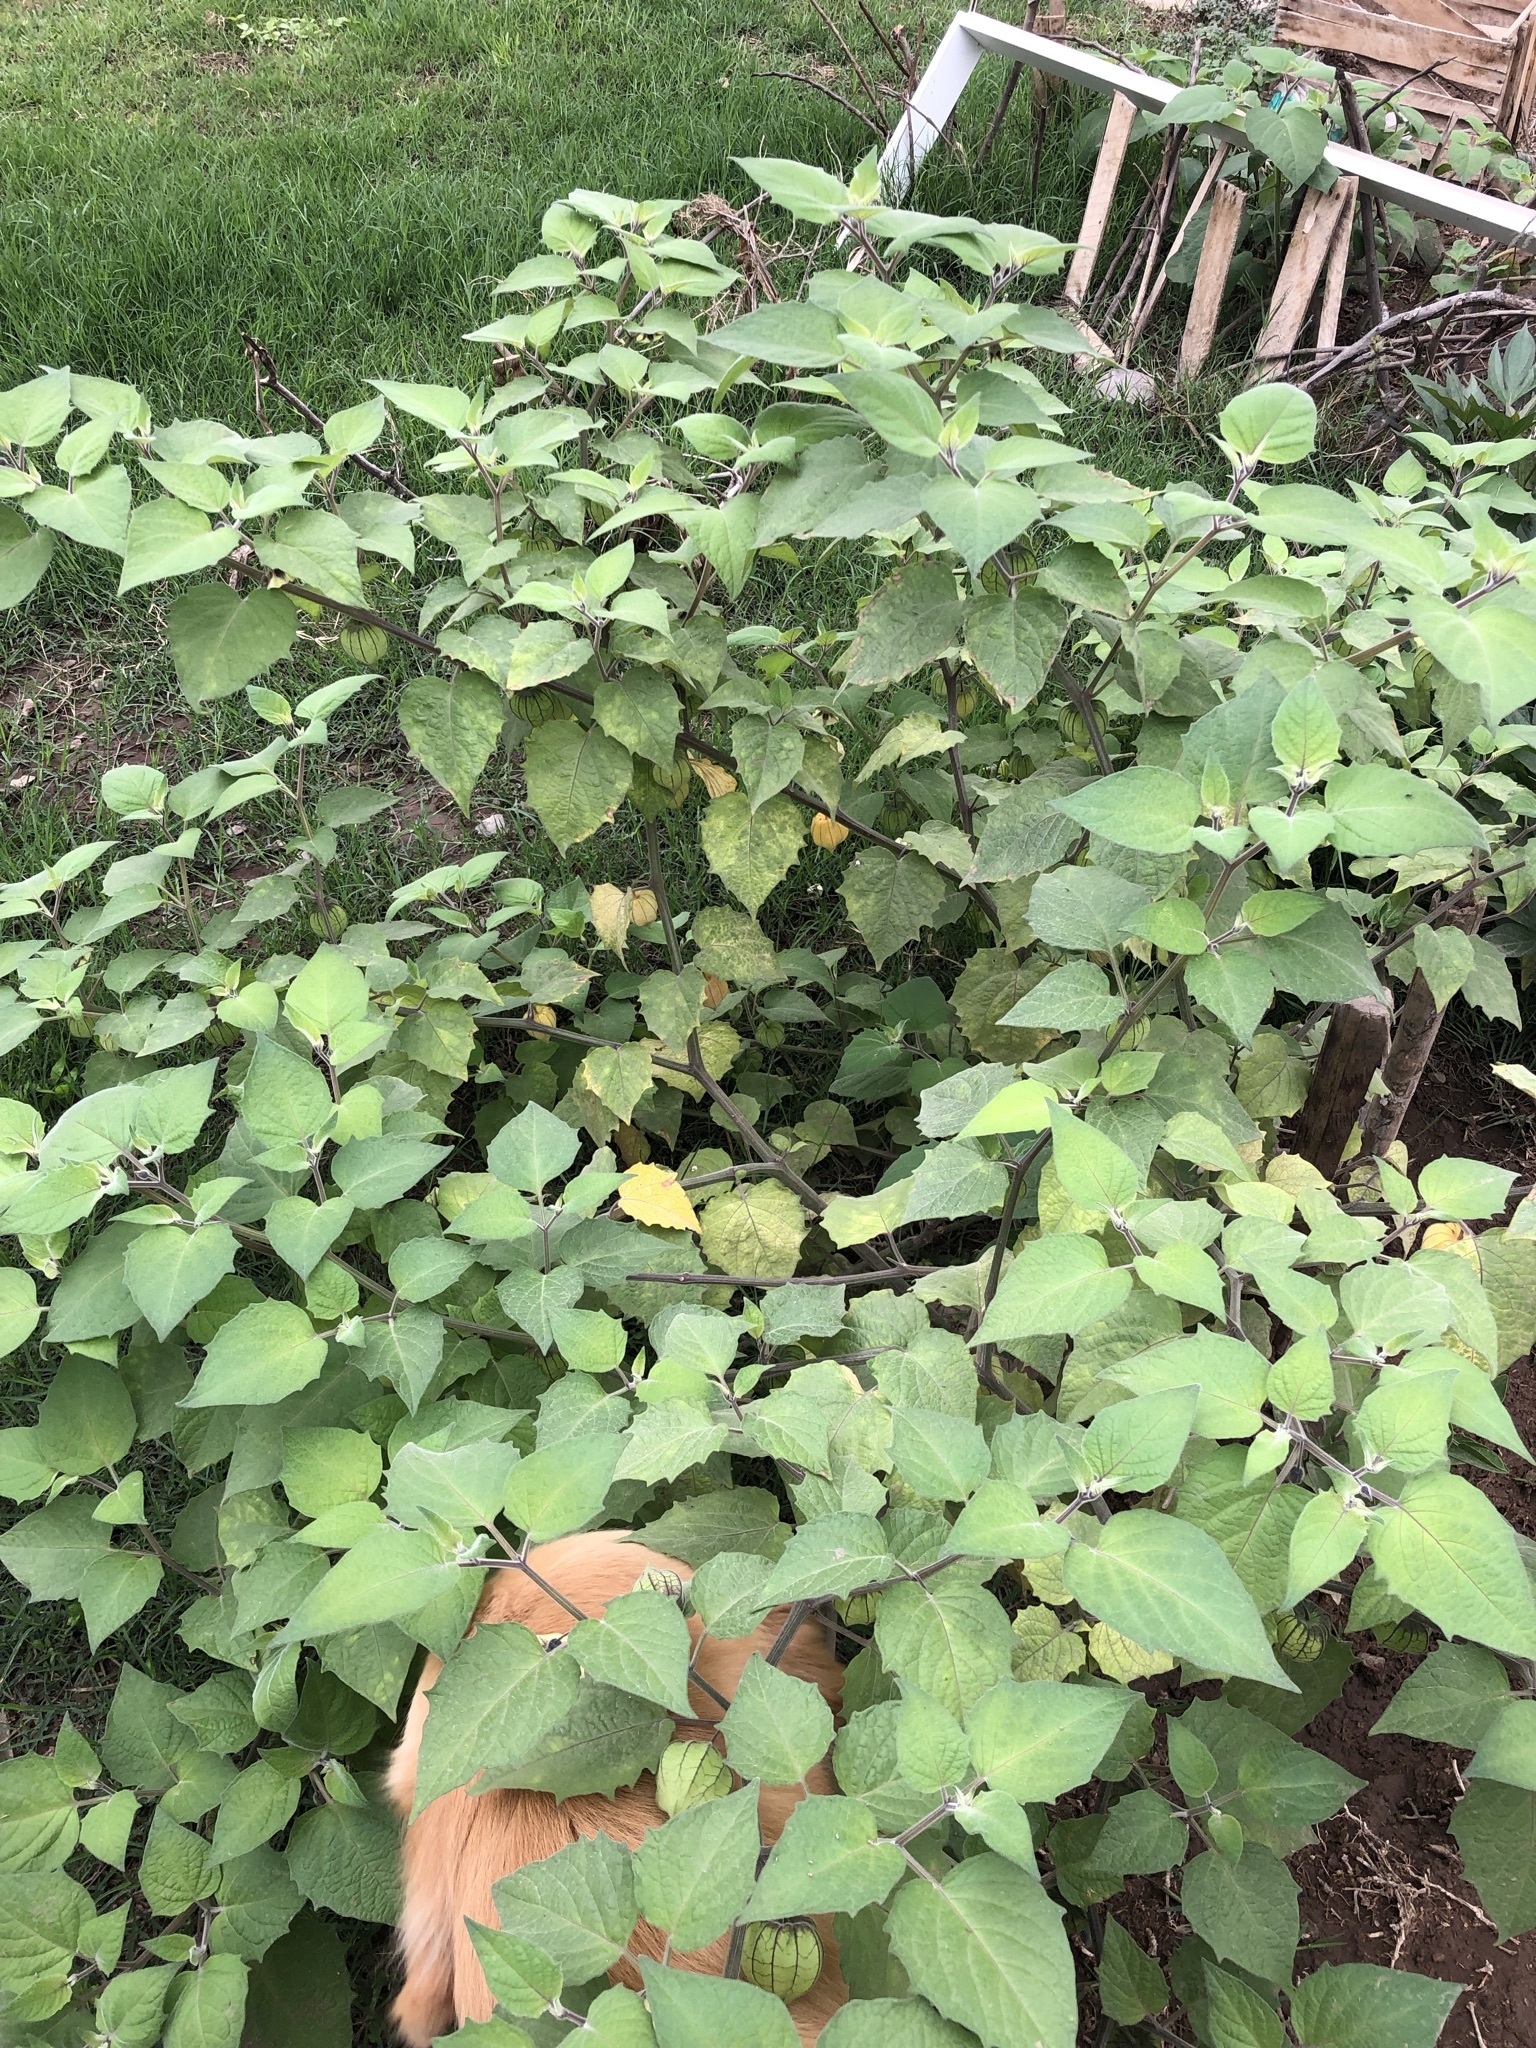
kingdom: Plantae
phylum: Tracheophyta
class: Magnoliopsida
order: Solanales
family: Solanaceae
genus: Physalis
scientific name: Physalis peruviana
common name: Cape-gooseberry
